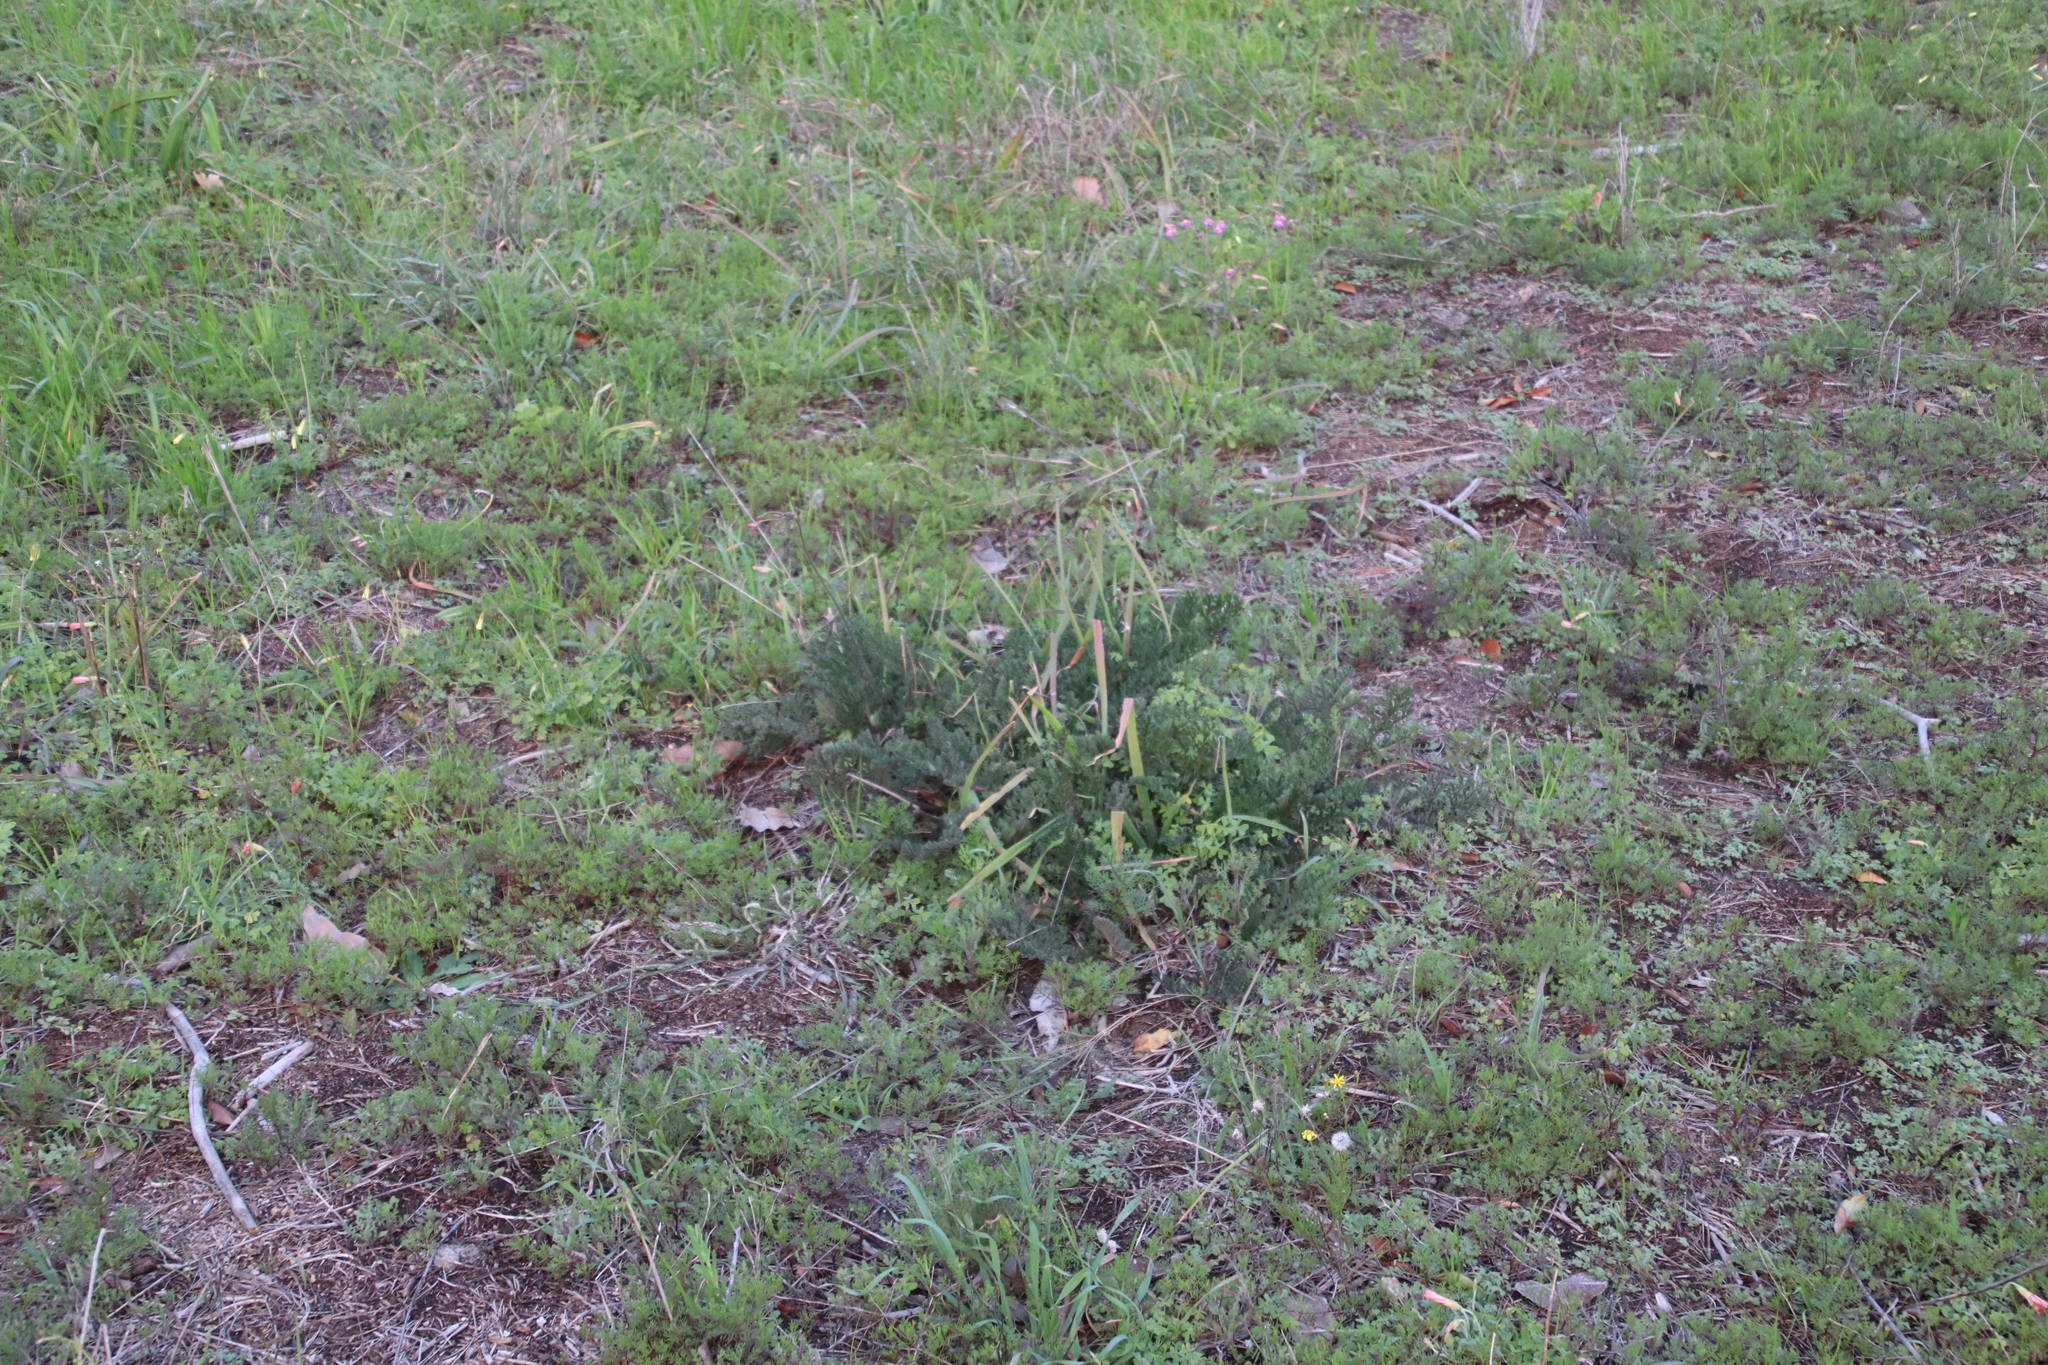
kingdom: Plantae
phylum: Tracheophyta
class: Magnoliopsida
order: Geraniales
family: Geraniaceae
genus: Pelargonium
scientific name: Pelargonium triste
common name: Night-scent pelargonium
